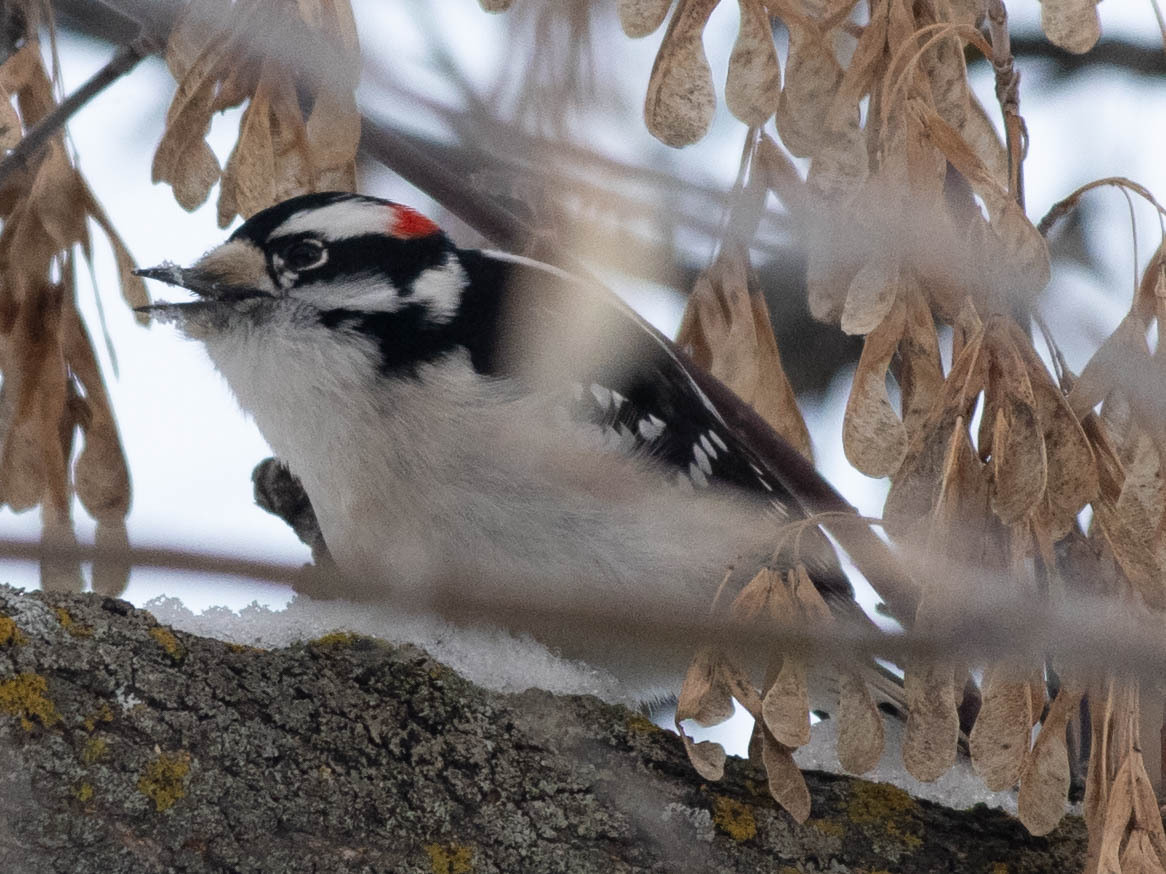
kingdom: Animalia
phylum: Chordata
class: Aves
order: Piciformes
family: Picidae
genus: Dryobates
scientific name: Dryobates pubescens
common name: Downy woodpecker
